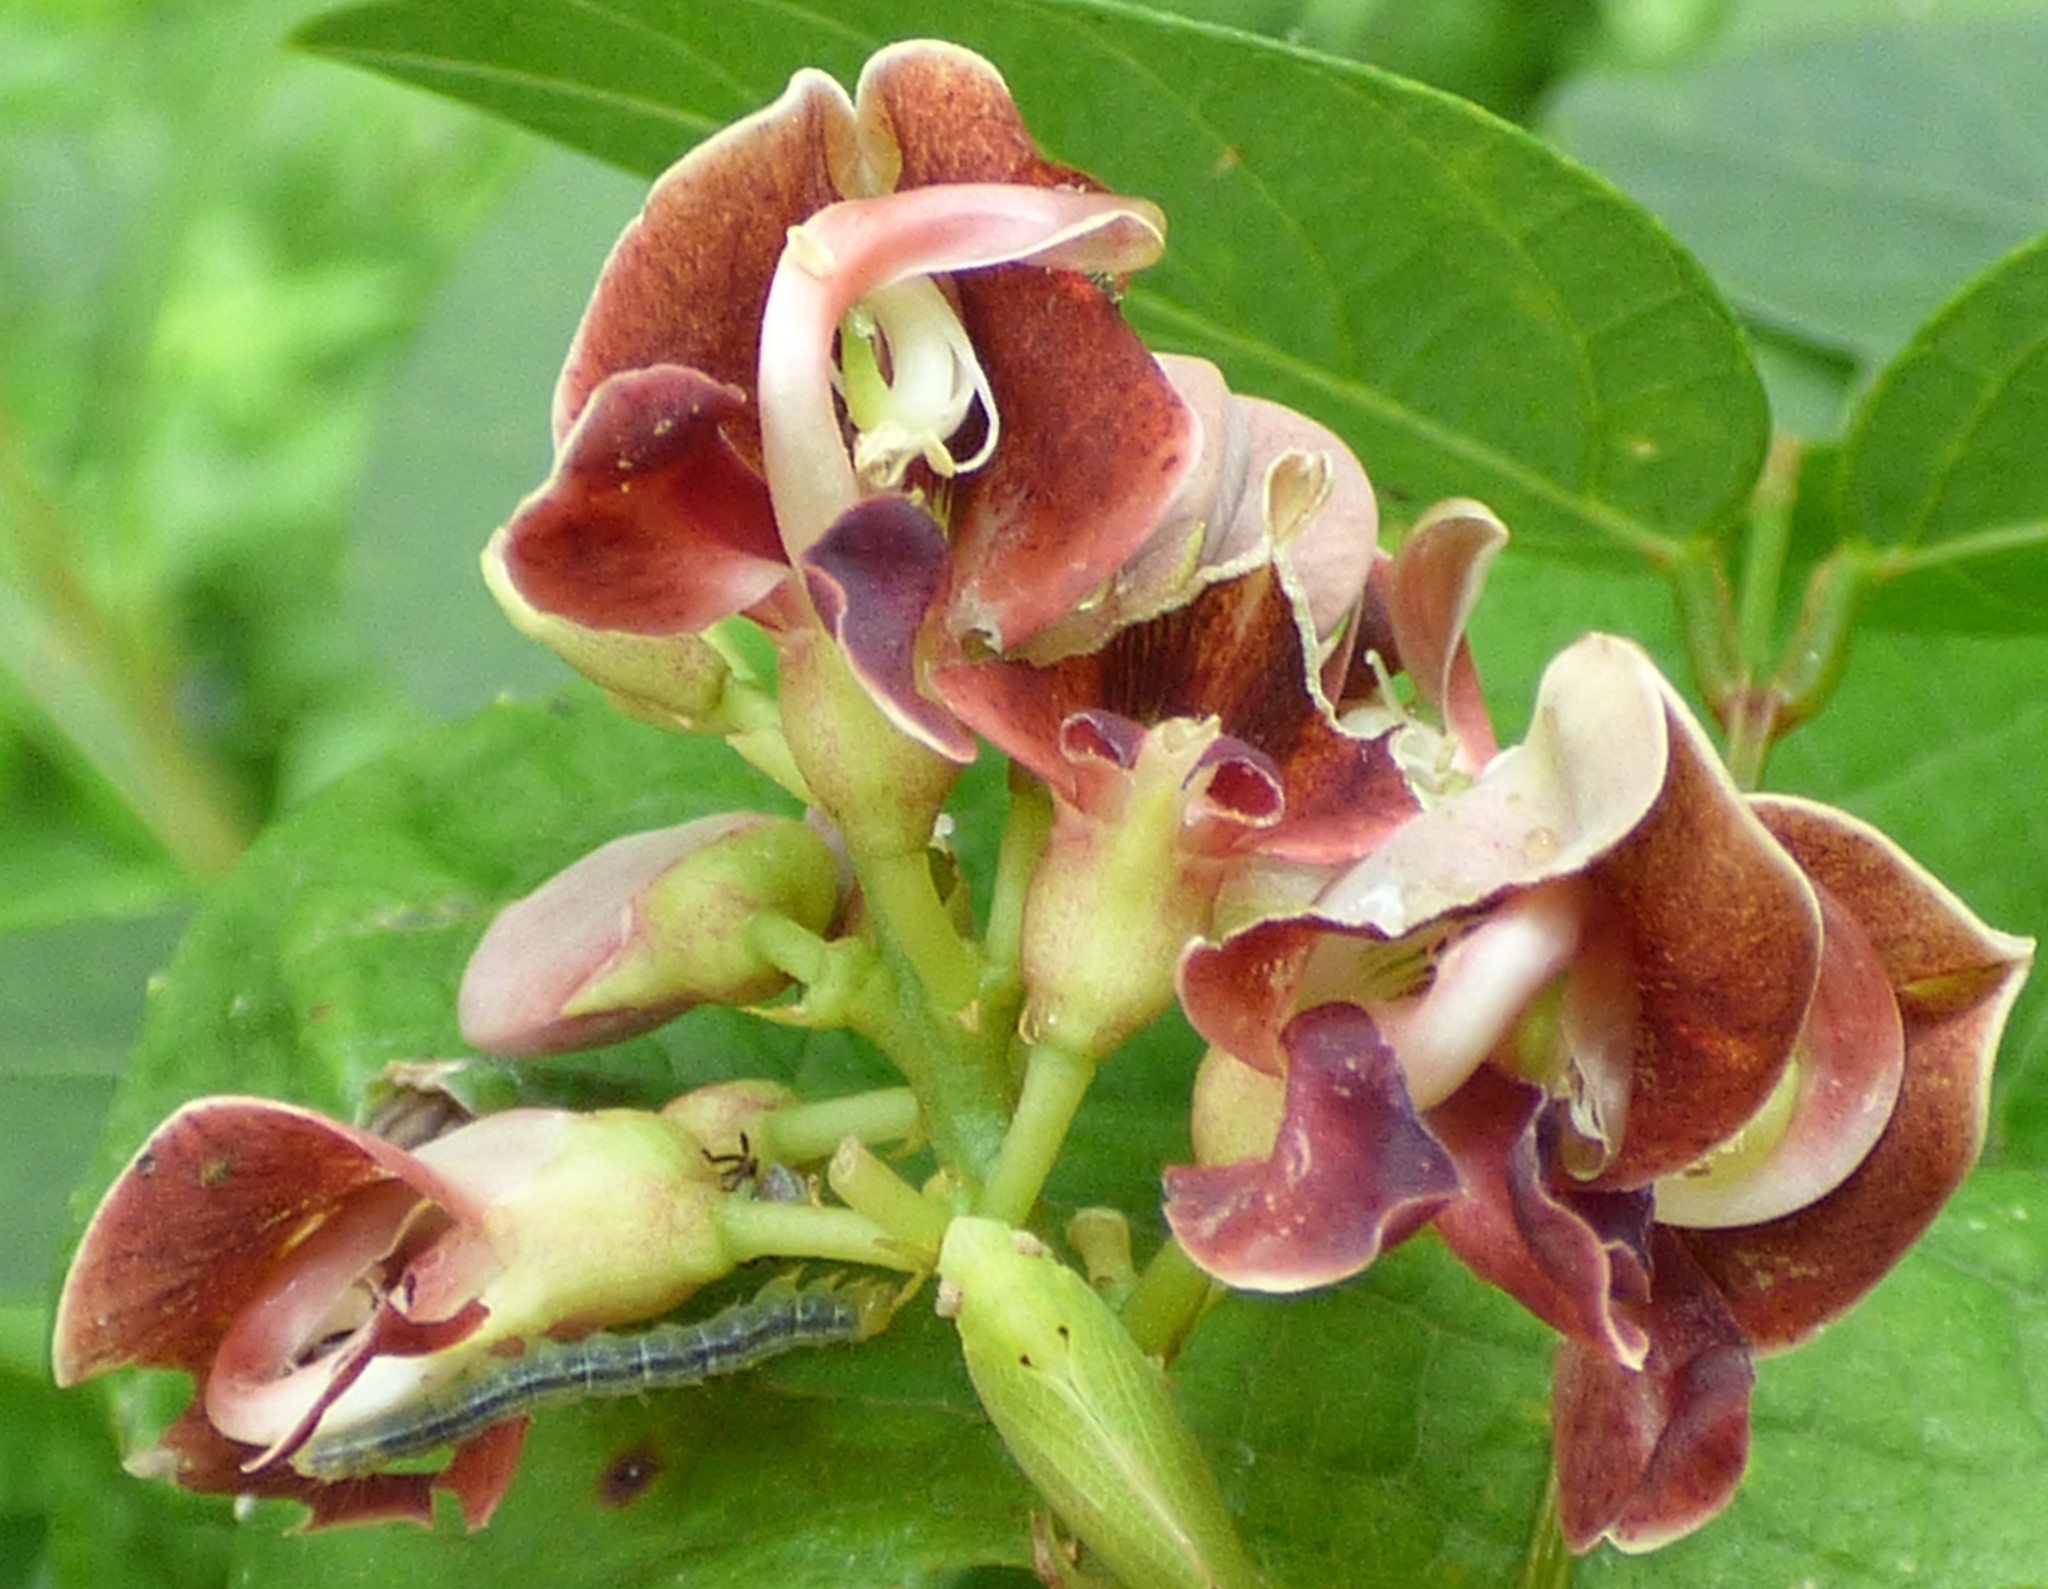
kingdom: Plantae
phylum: Tracheophyta
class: Magnoliopsida
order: Fabales
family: Fabaceae
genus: Apios
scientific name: Apios americana
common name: American potato-bean
